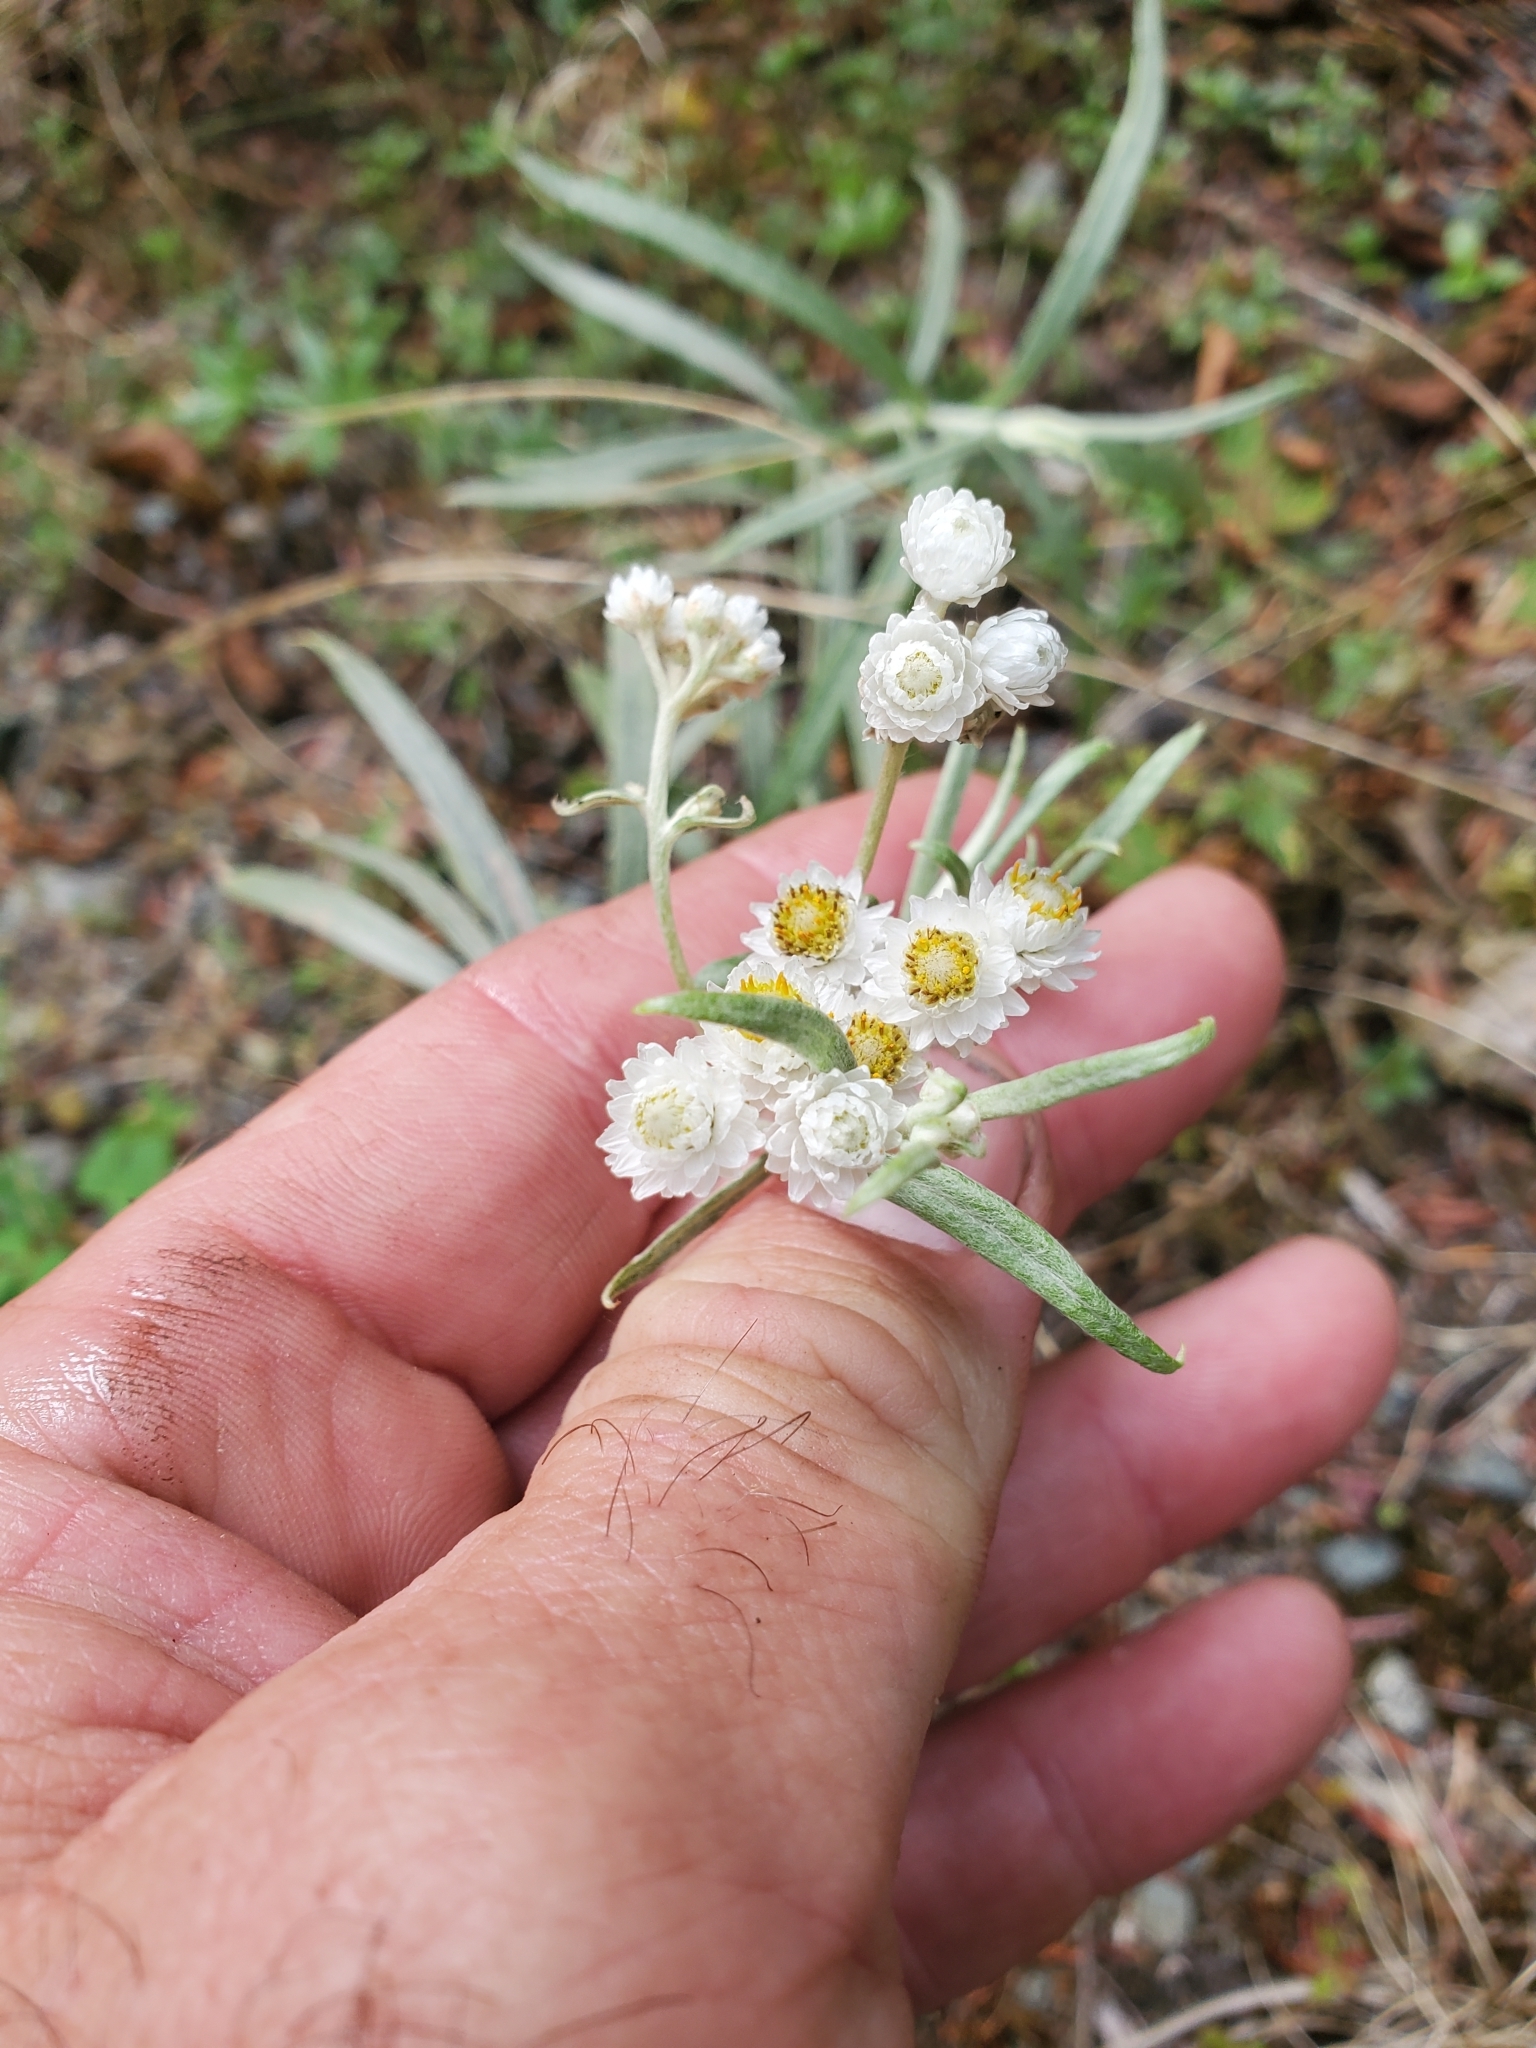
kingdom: Plantae
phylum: Tracheophyta
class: Magnoliopsida
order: Asterales
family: Asteraceae
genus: Anaphalis
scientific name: Anaphalis margaritacea
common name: Pearly everlasting
